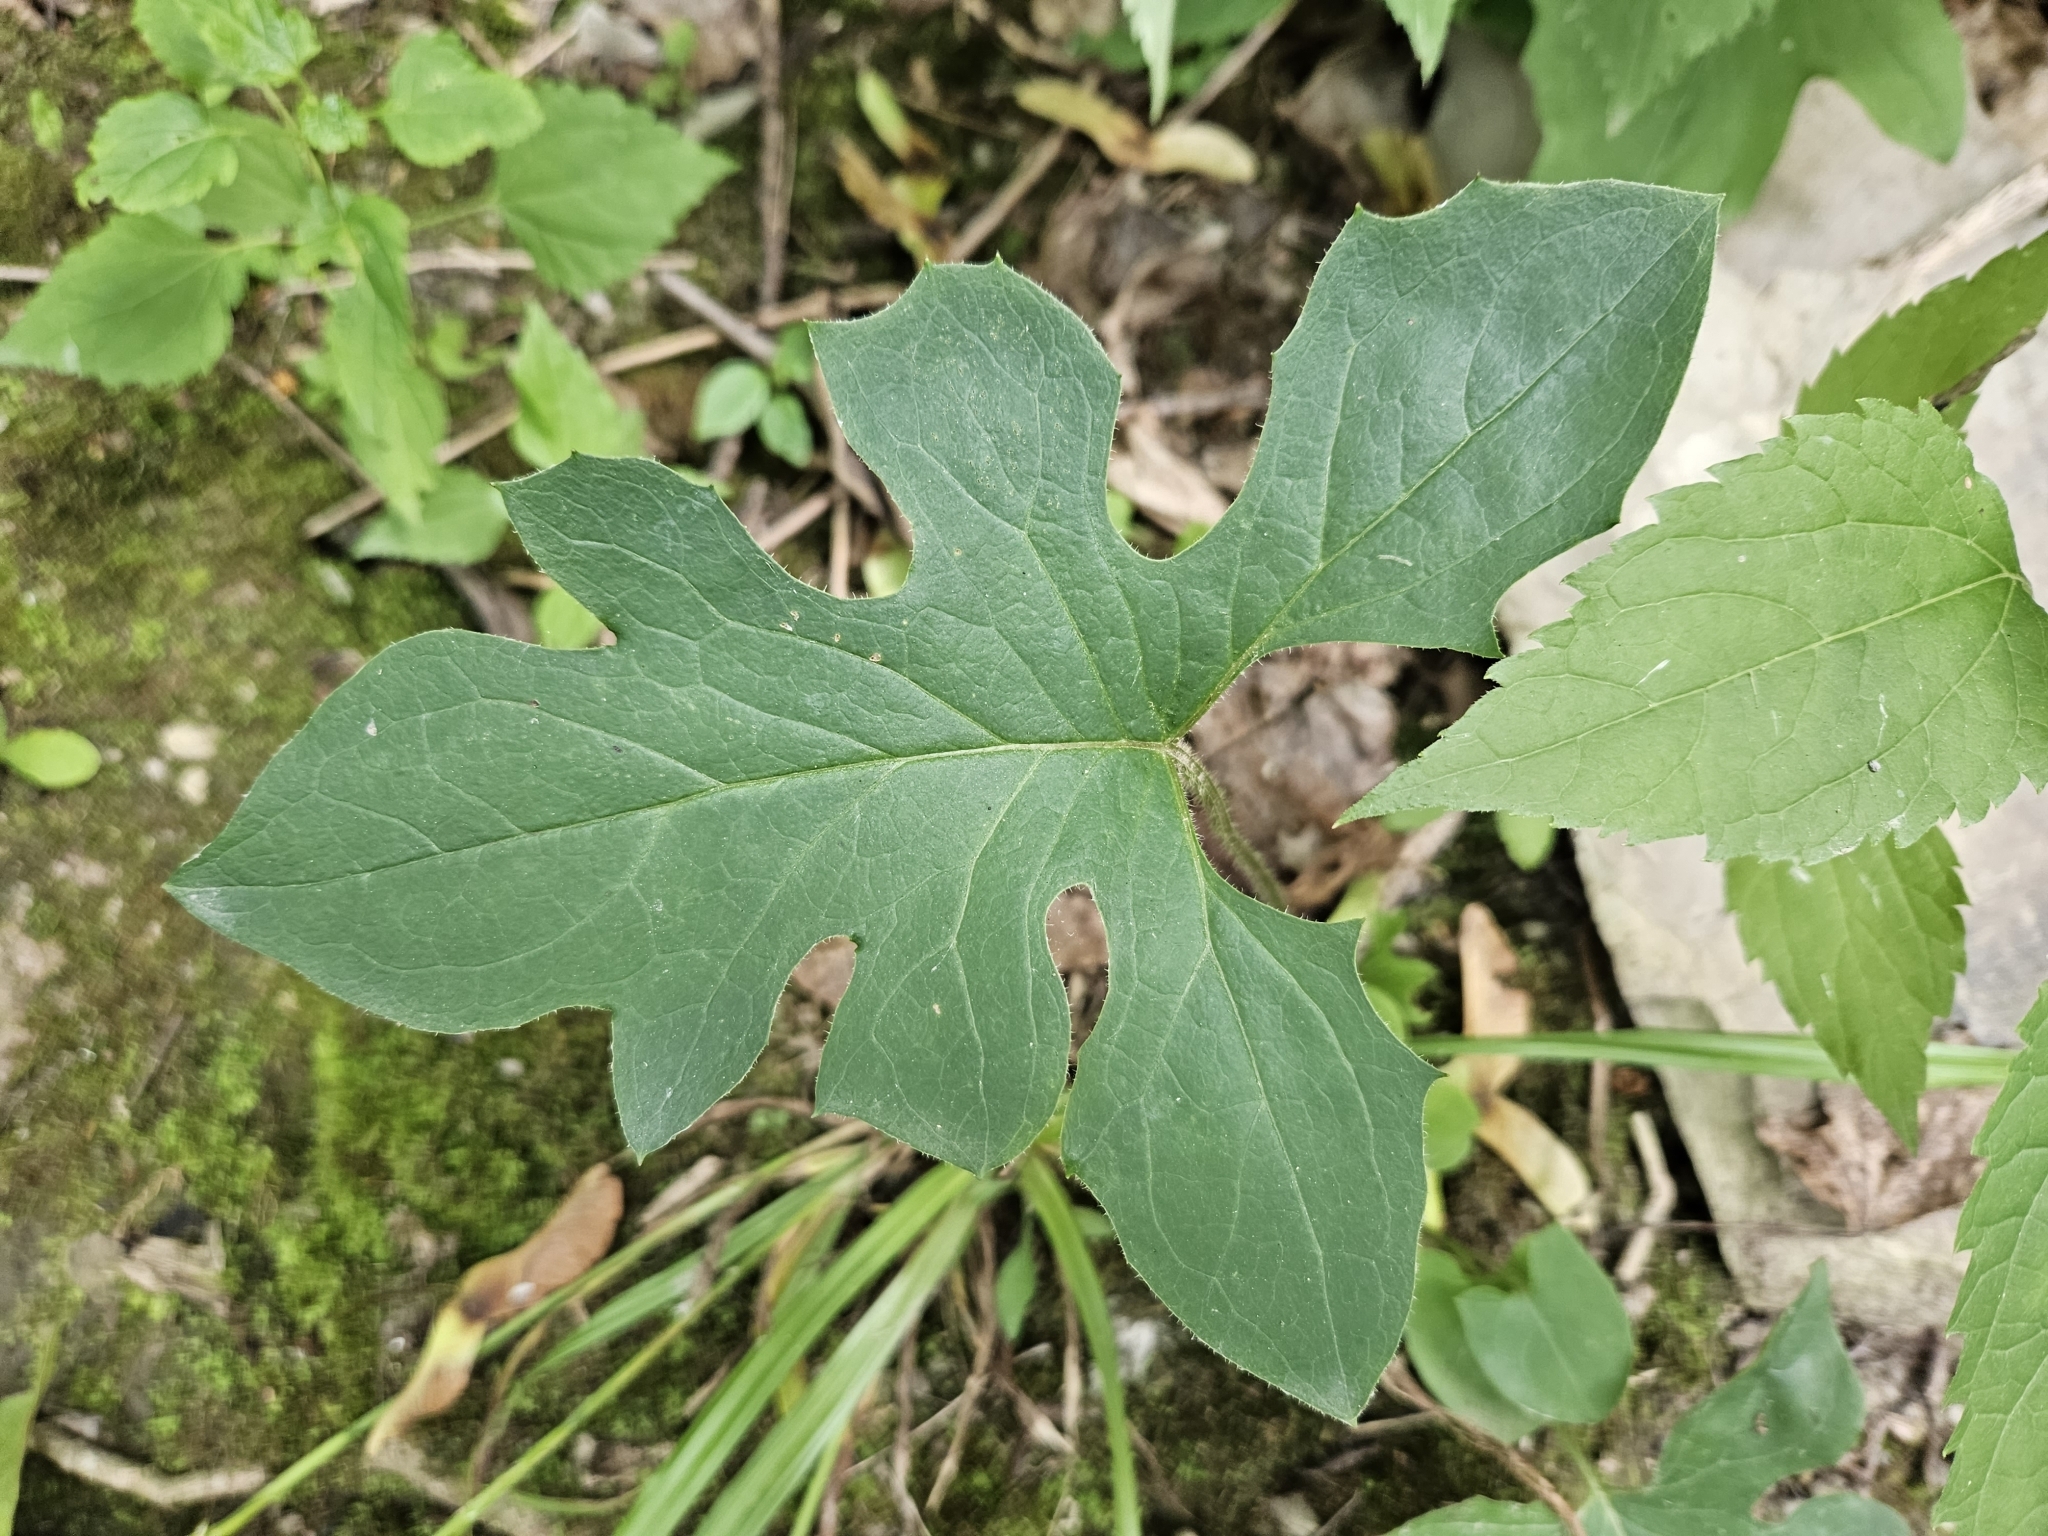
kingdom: Plantae
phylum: Tracheophyta
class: Magnoliopsida
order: Asterales
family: Asteraceae
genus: Nabalus
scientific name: Nabalus
